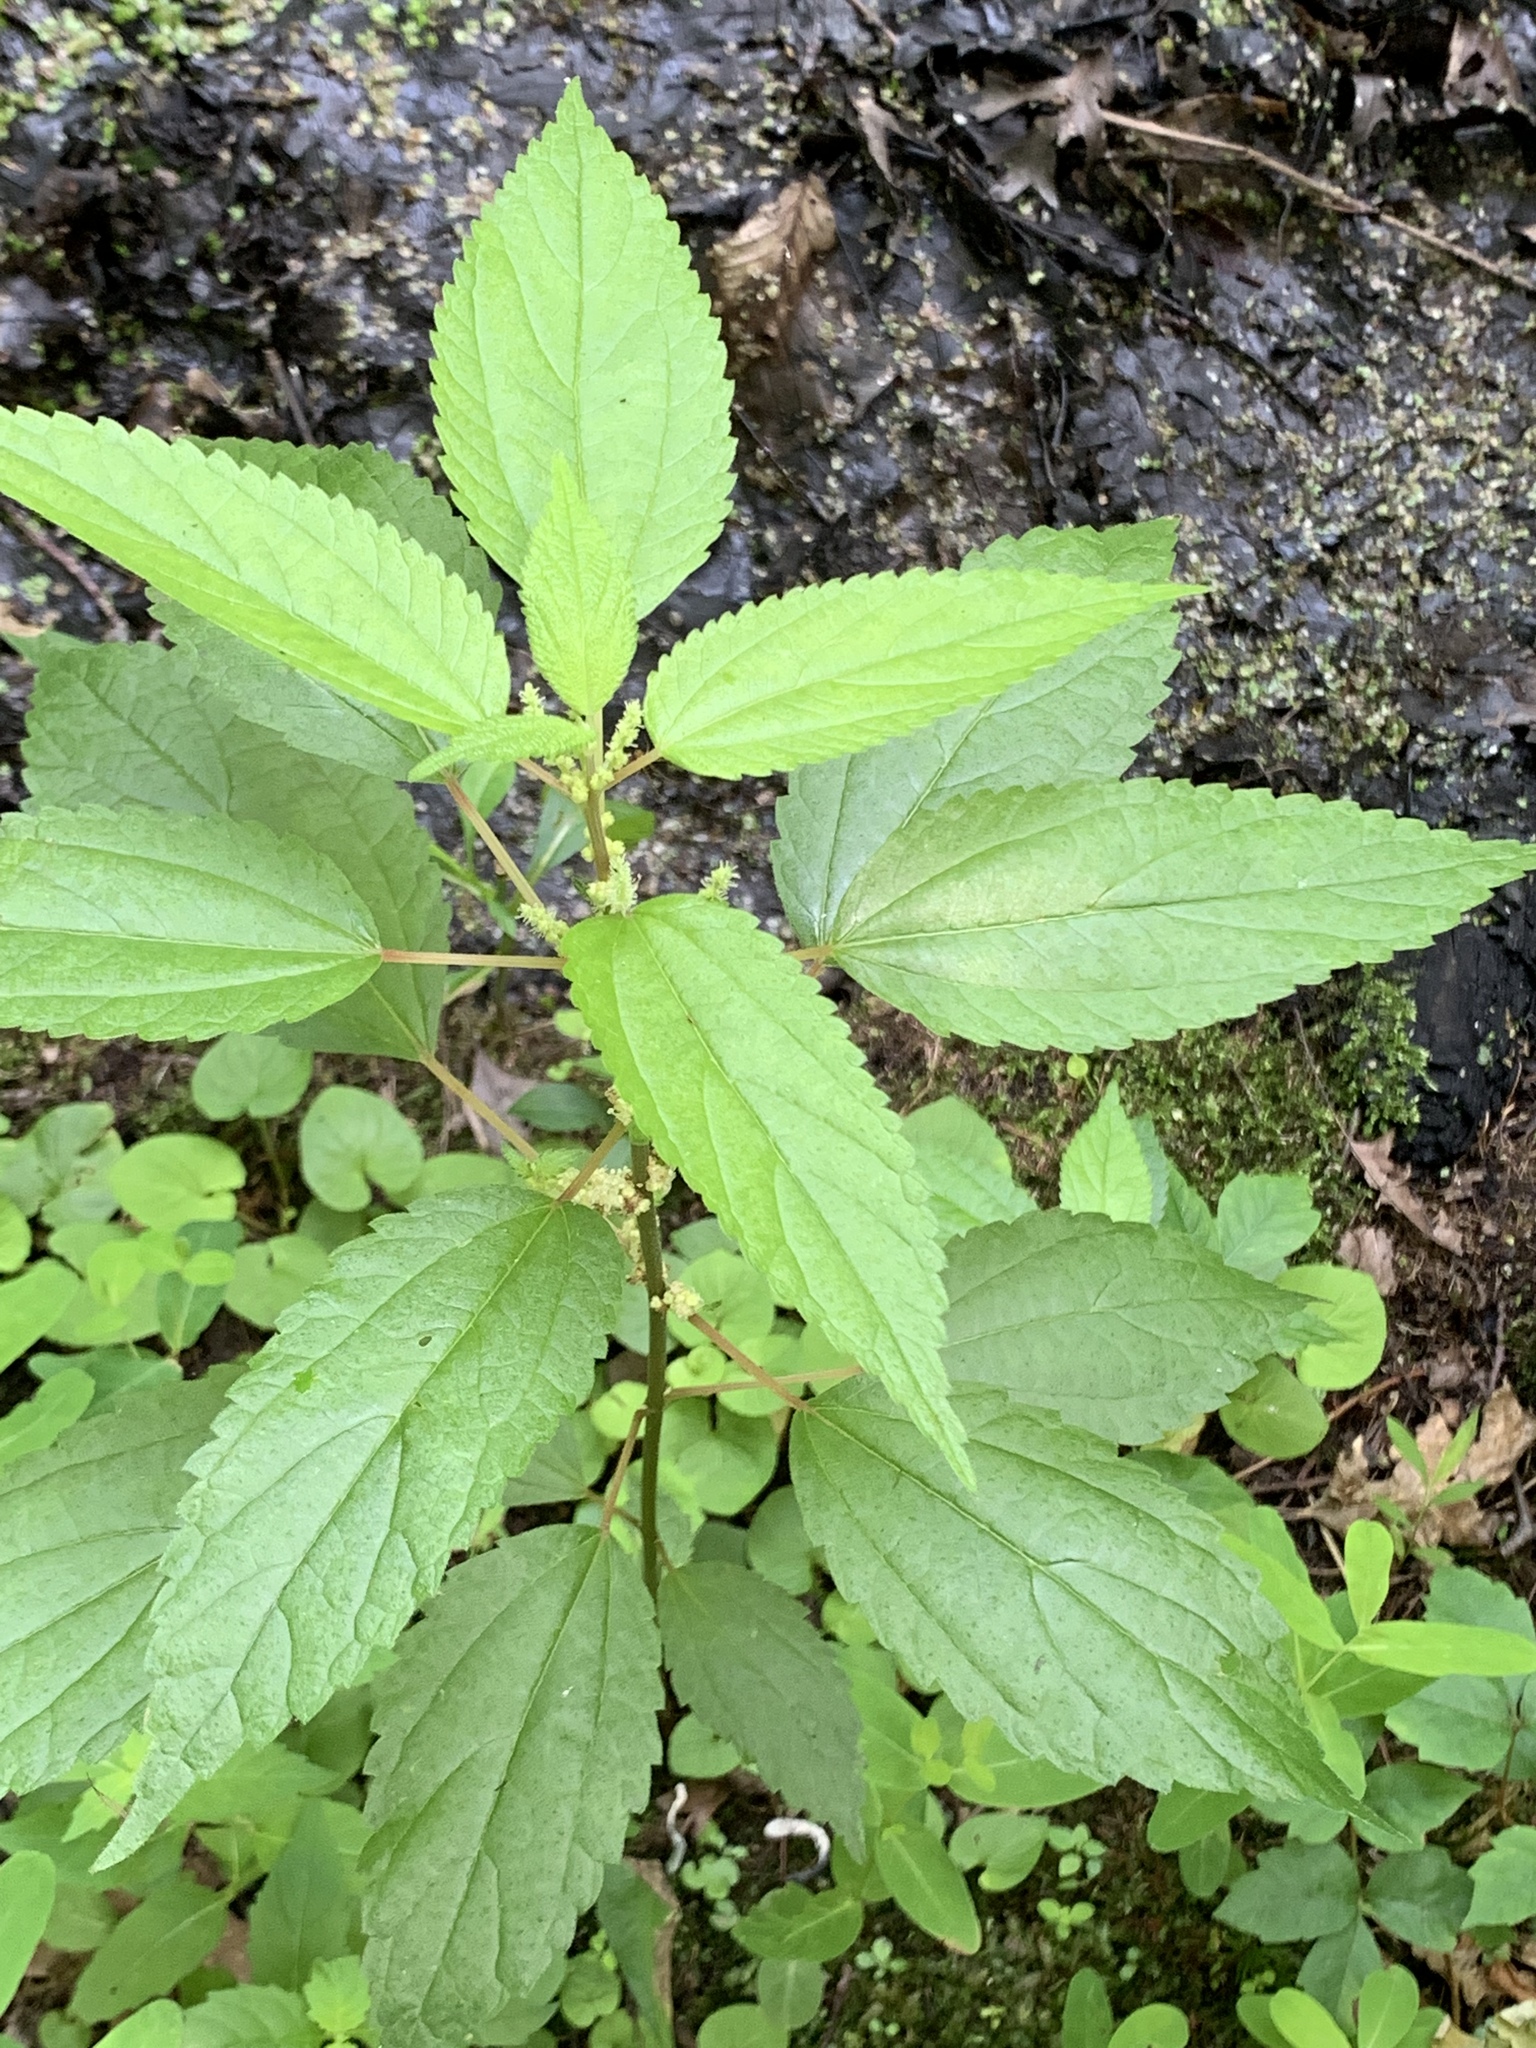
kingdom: Plantae
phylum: Tracheophyta
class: Magnoliopsida
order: Rosales
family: Urticaceae
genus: Boehmeria
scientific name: Boehmeria cylindrica
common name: Bog-hemp
